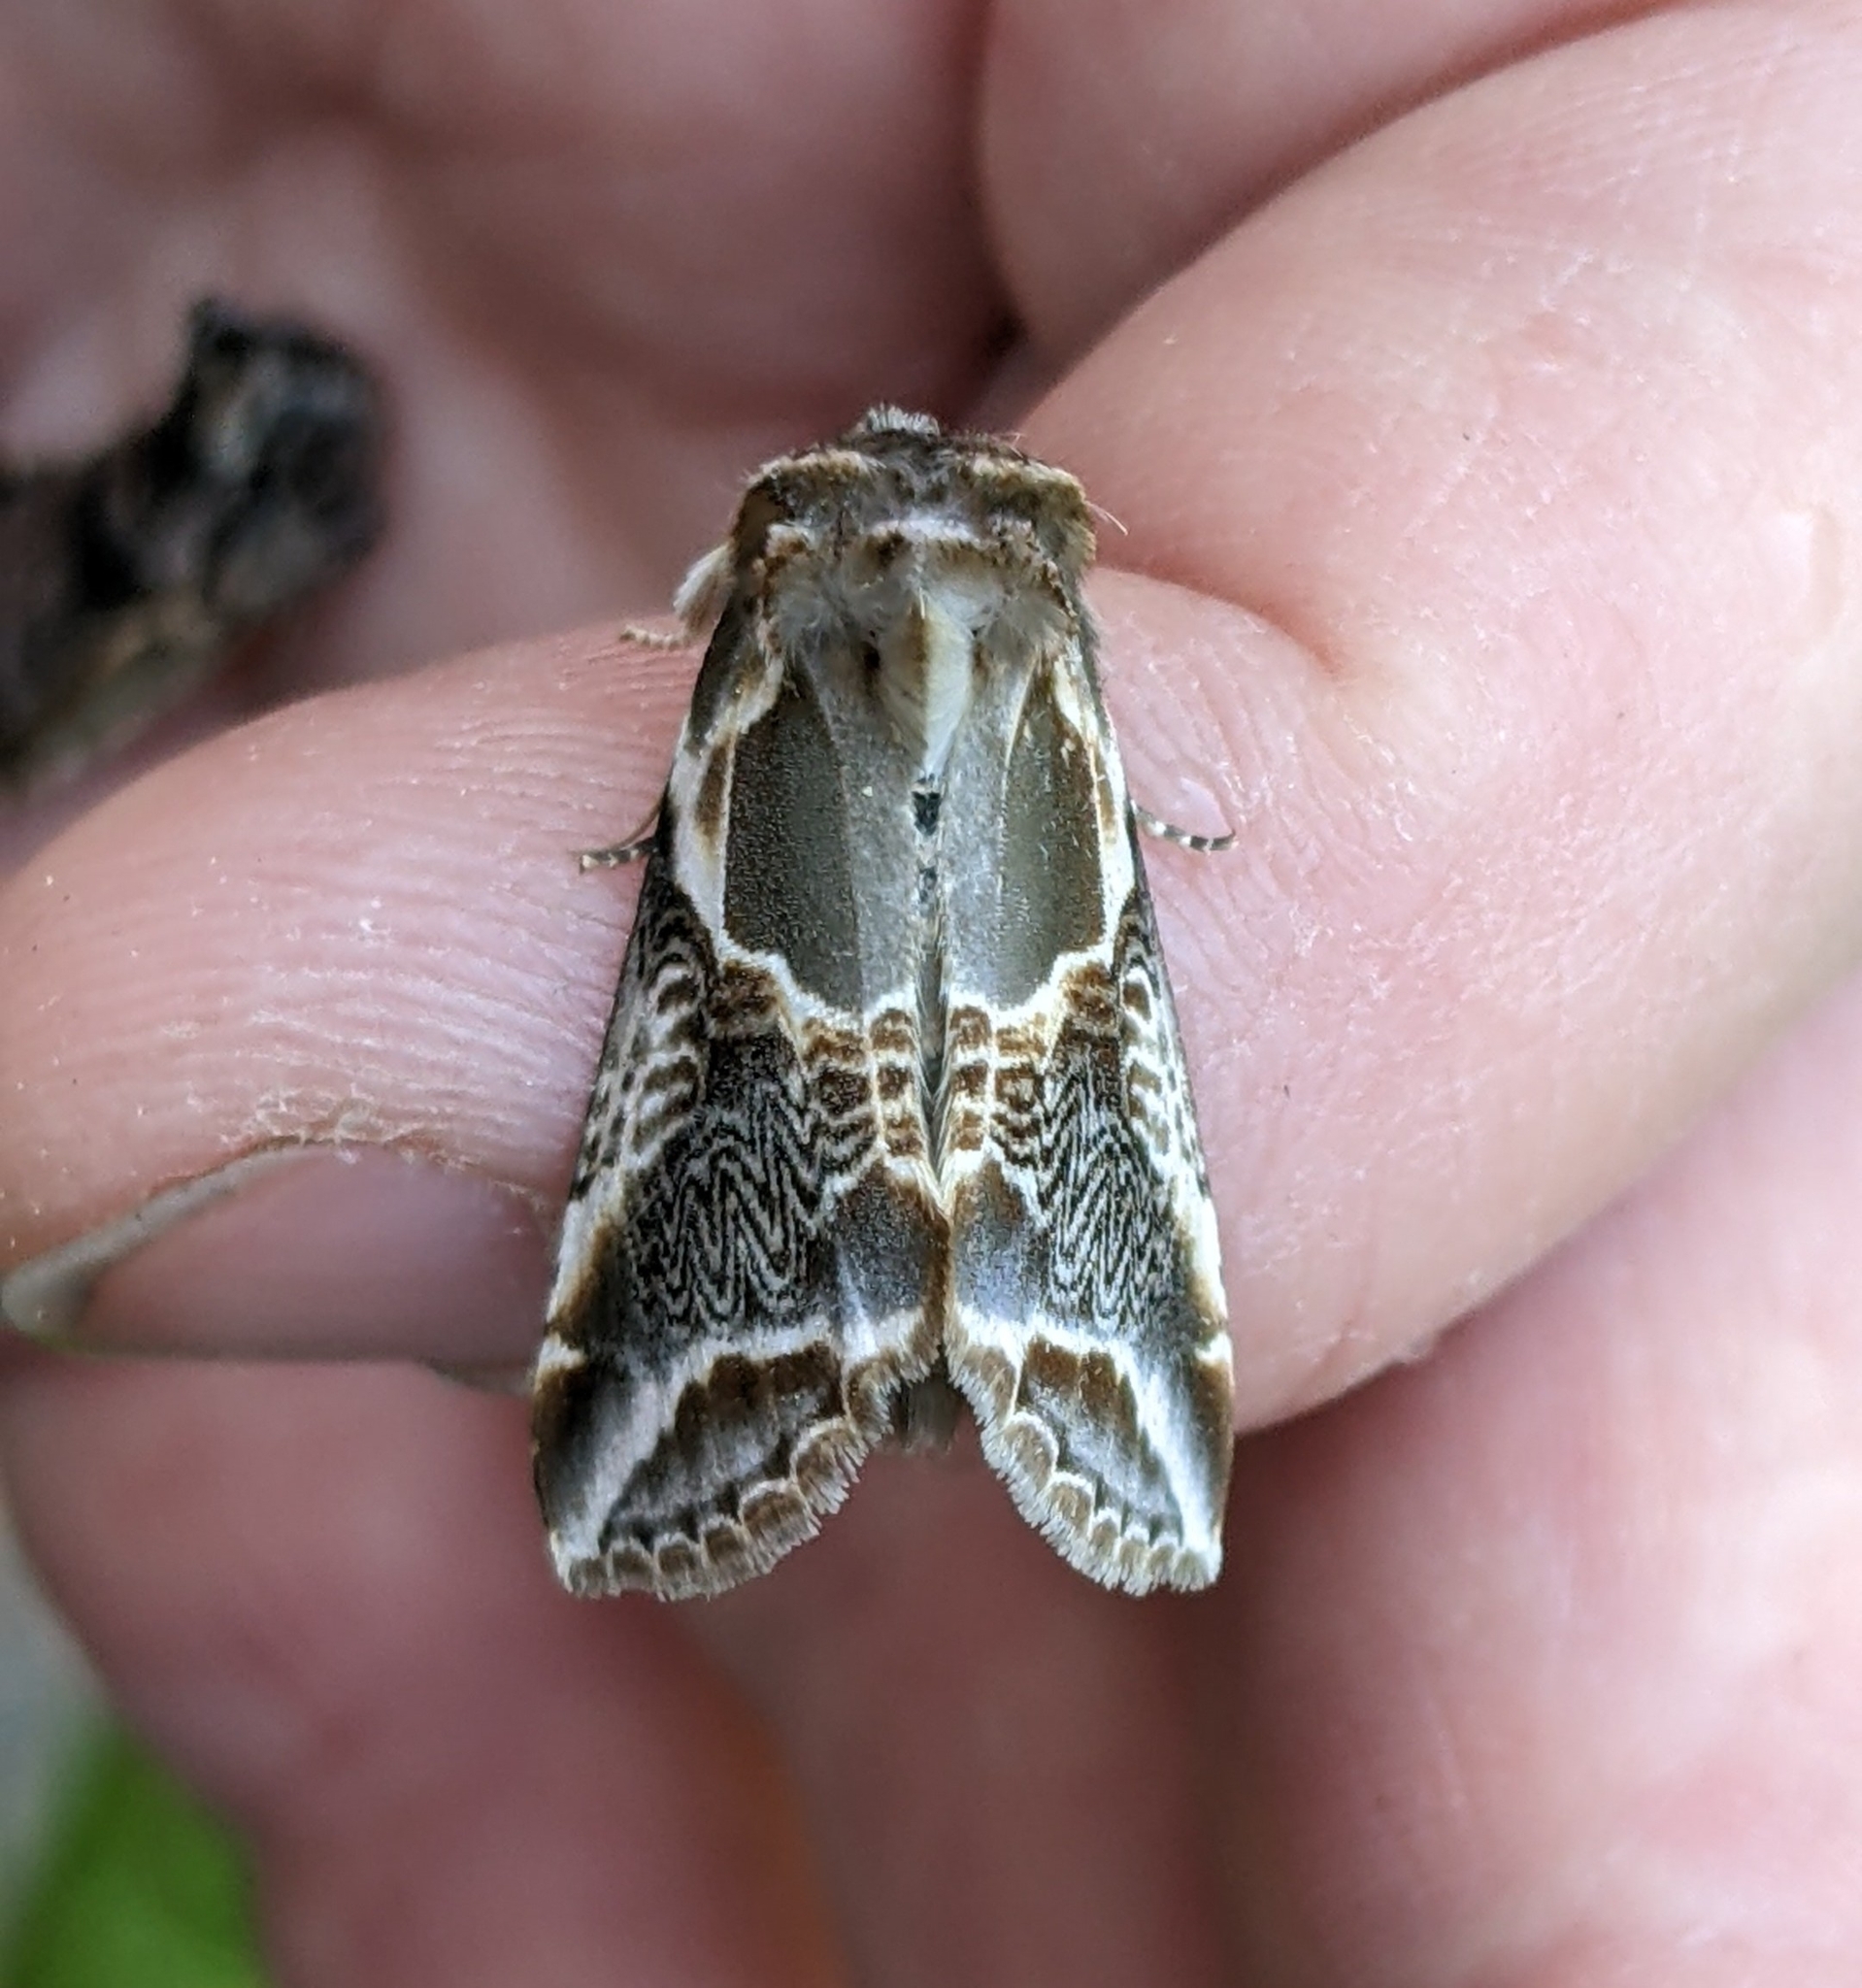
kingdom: Animalia
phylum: Arthropoda
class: Insecta
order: Lepidoptera
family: Drepanidae
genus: Habrosyne
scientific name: Habrosyne scripta
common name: Lettered habrosyne moth
